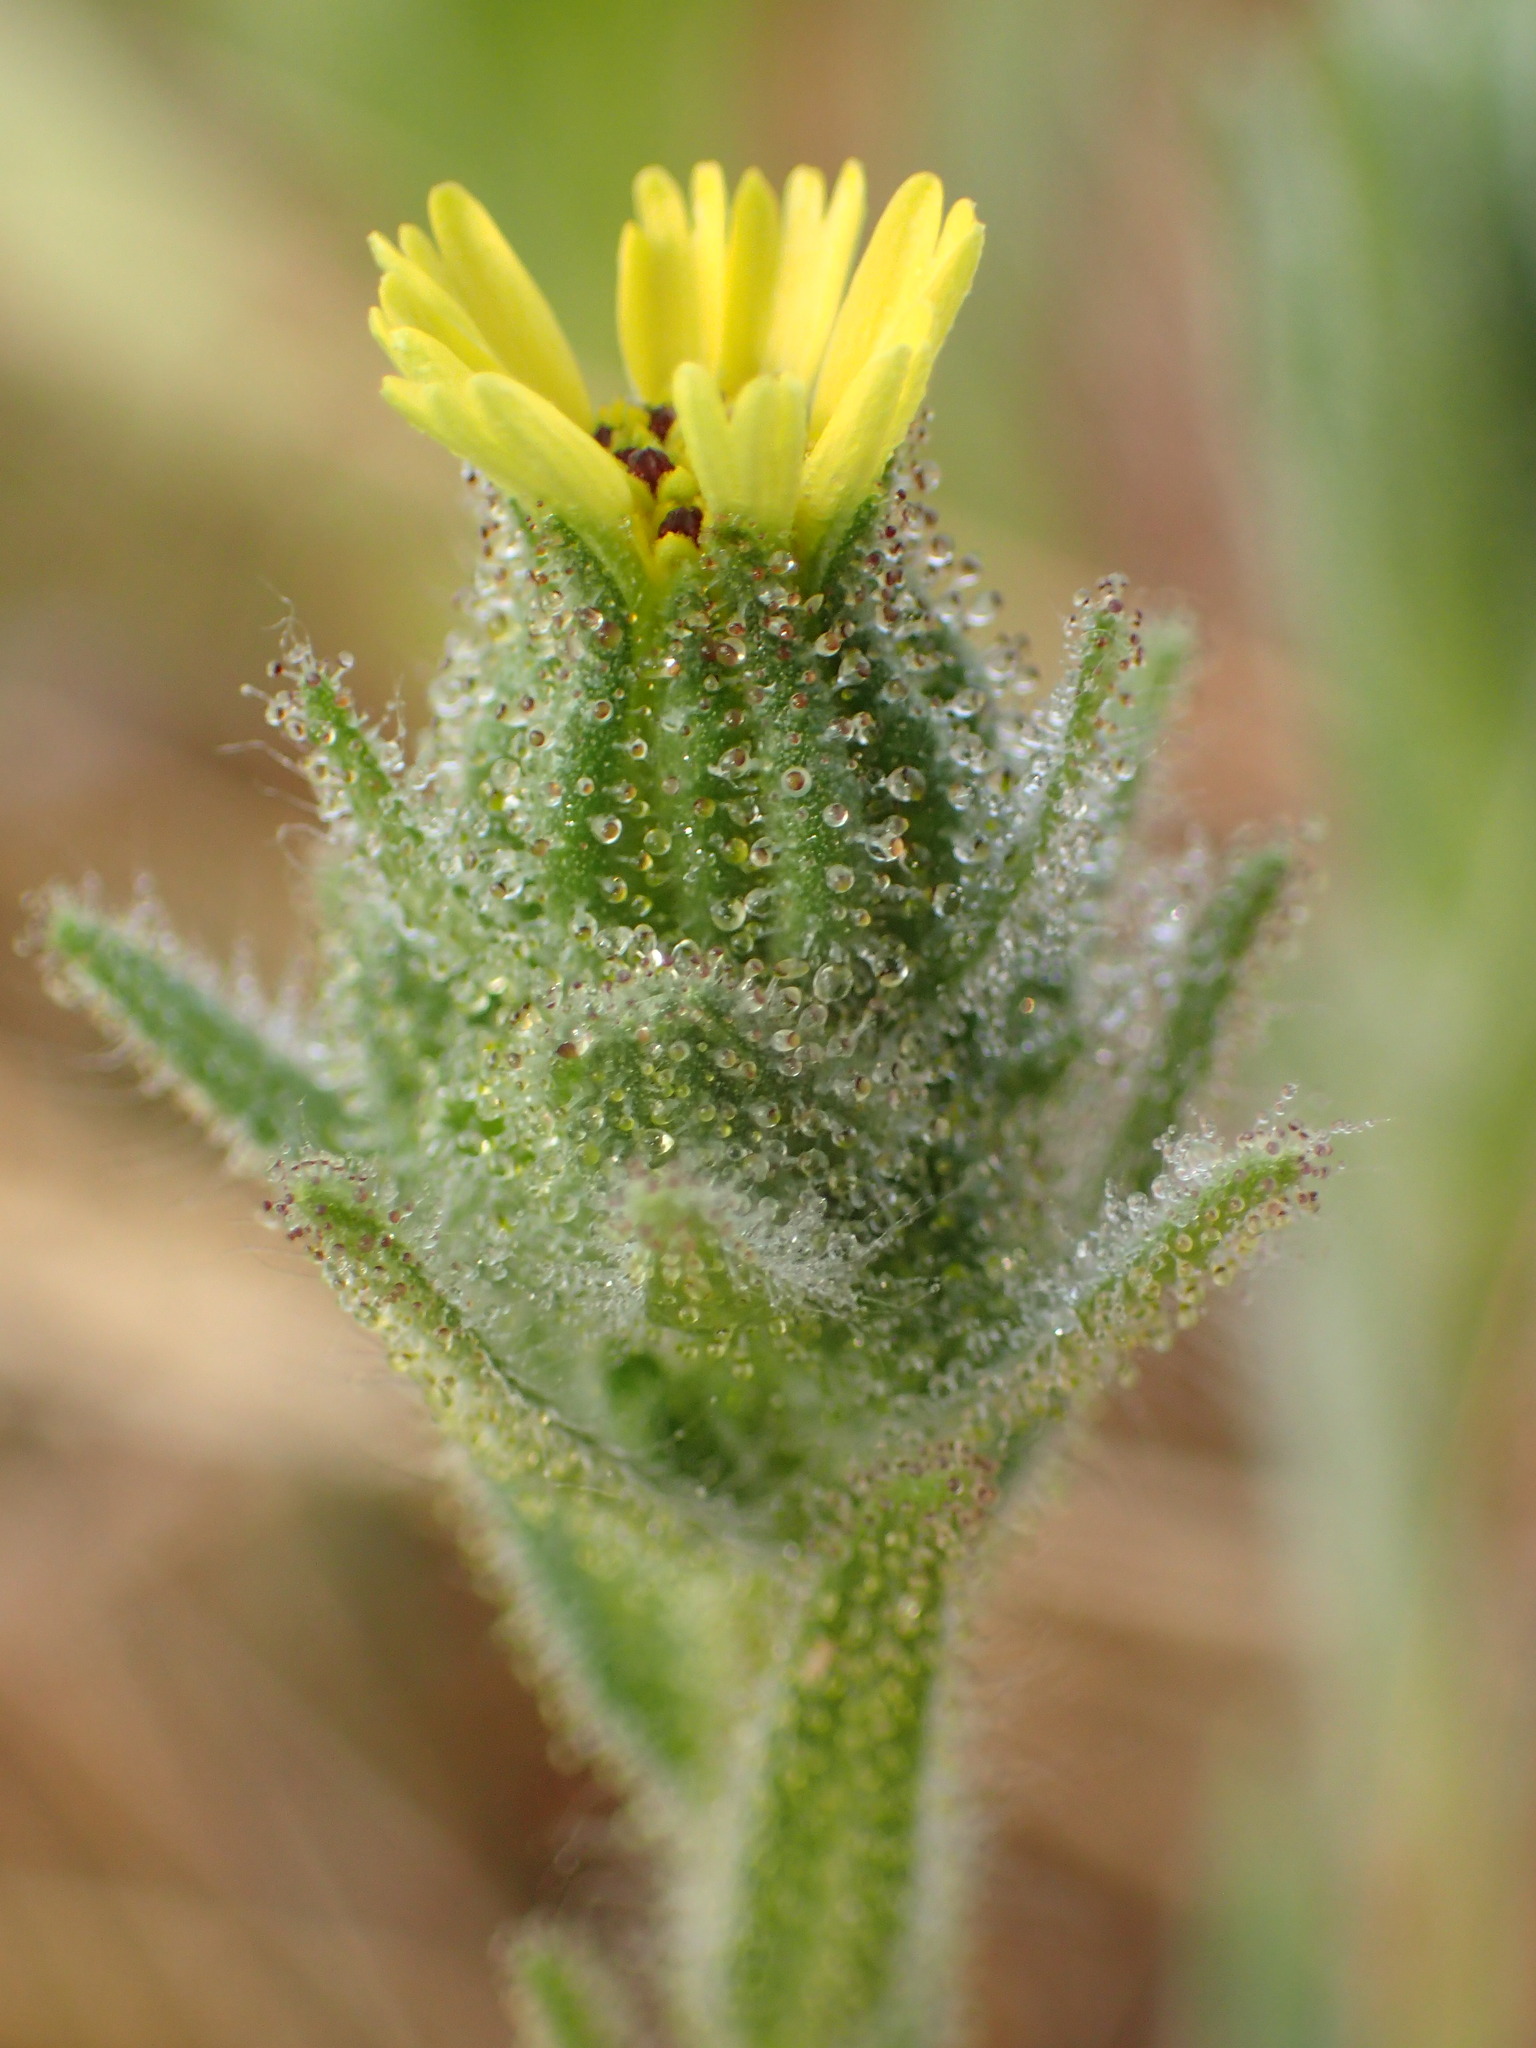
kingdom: Plantae
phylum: Tracheophyta
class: Magnoliopsida
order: Asterales
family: Asteraceae
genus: Madia
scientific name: Madia sativa
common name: Coast tarweed
